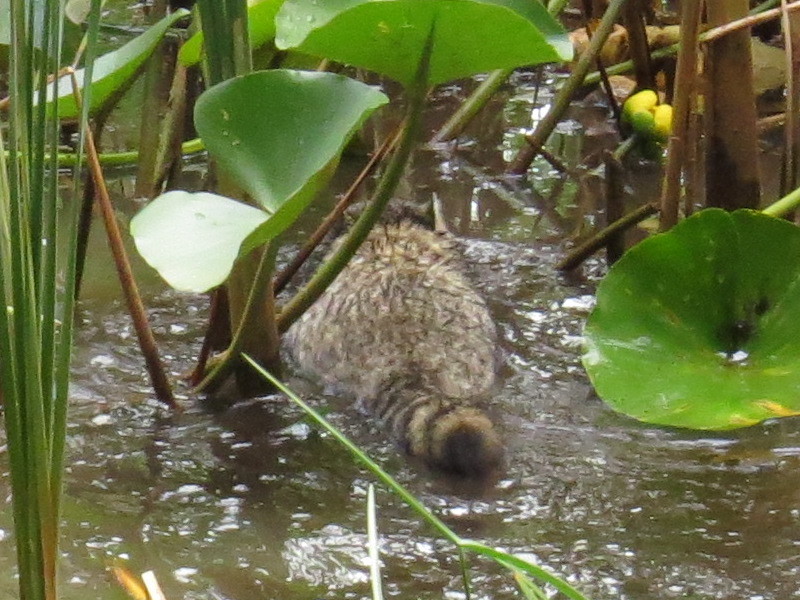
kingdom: Animalia
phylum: Chordata
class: Mammalia
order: Carnivora
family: Procyonidae
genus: Procyon
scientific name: Procyon lotor
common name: Raccoon
